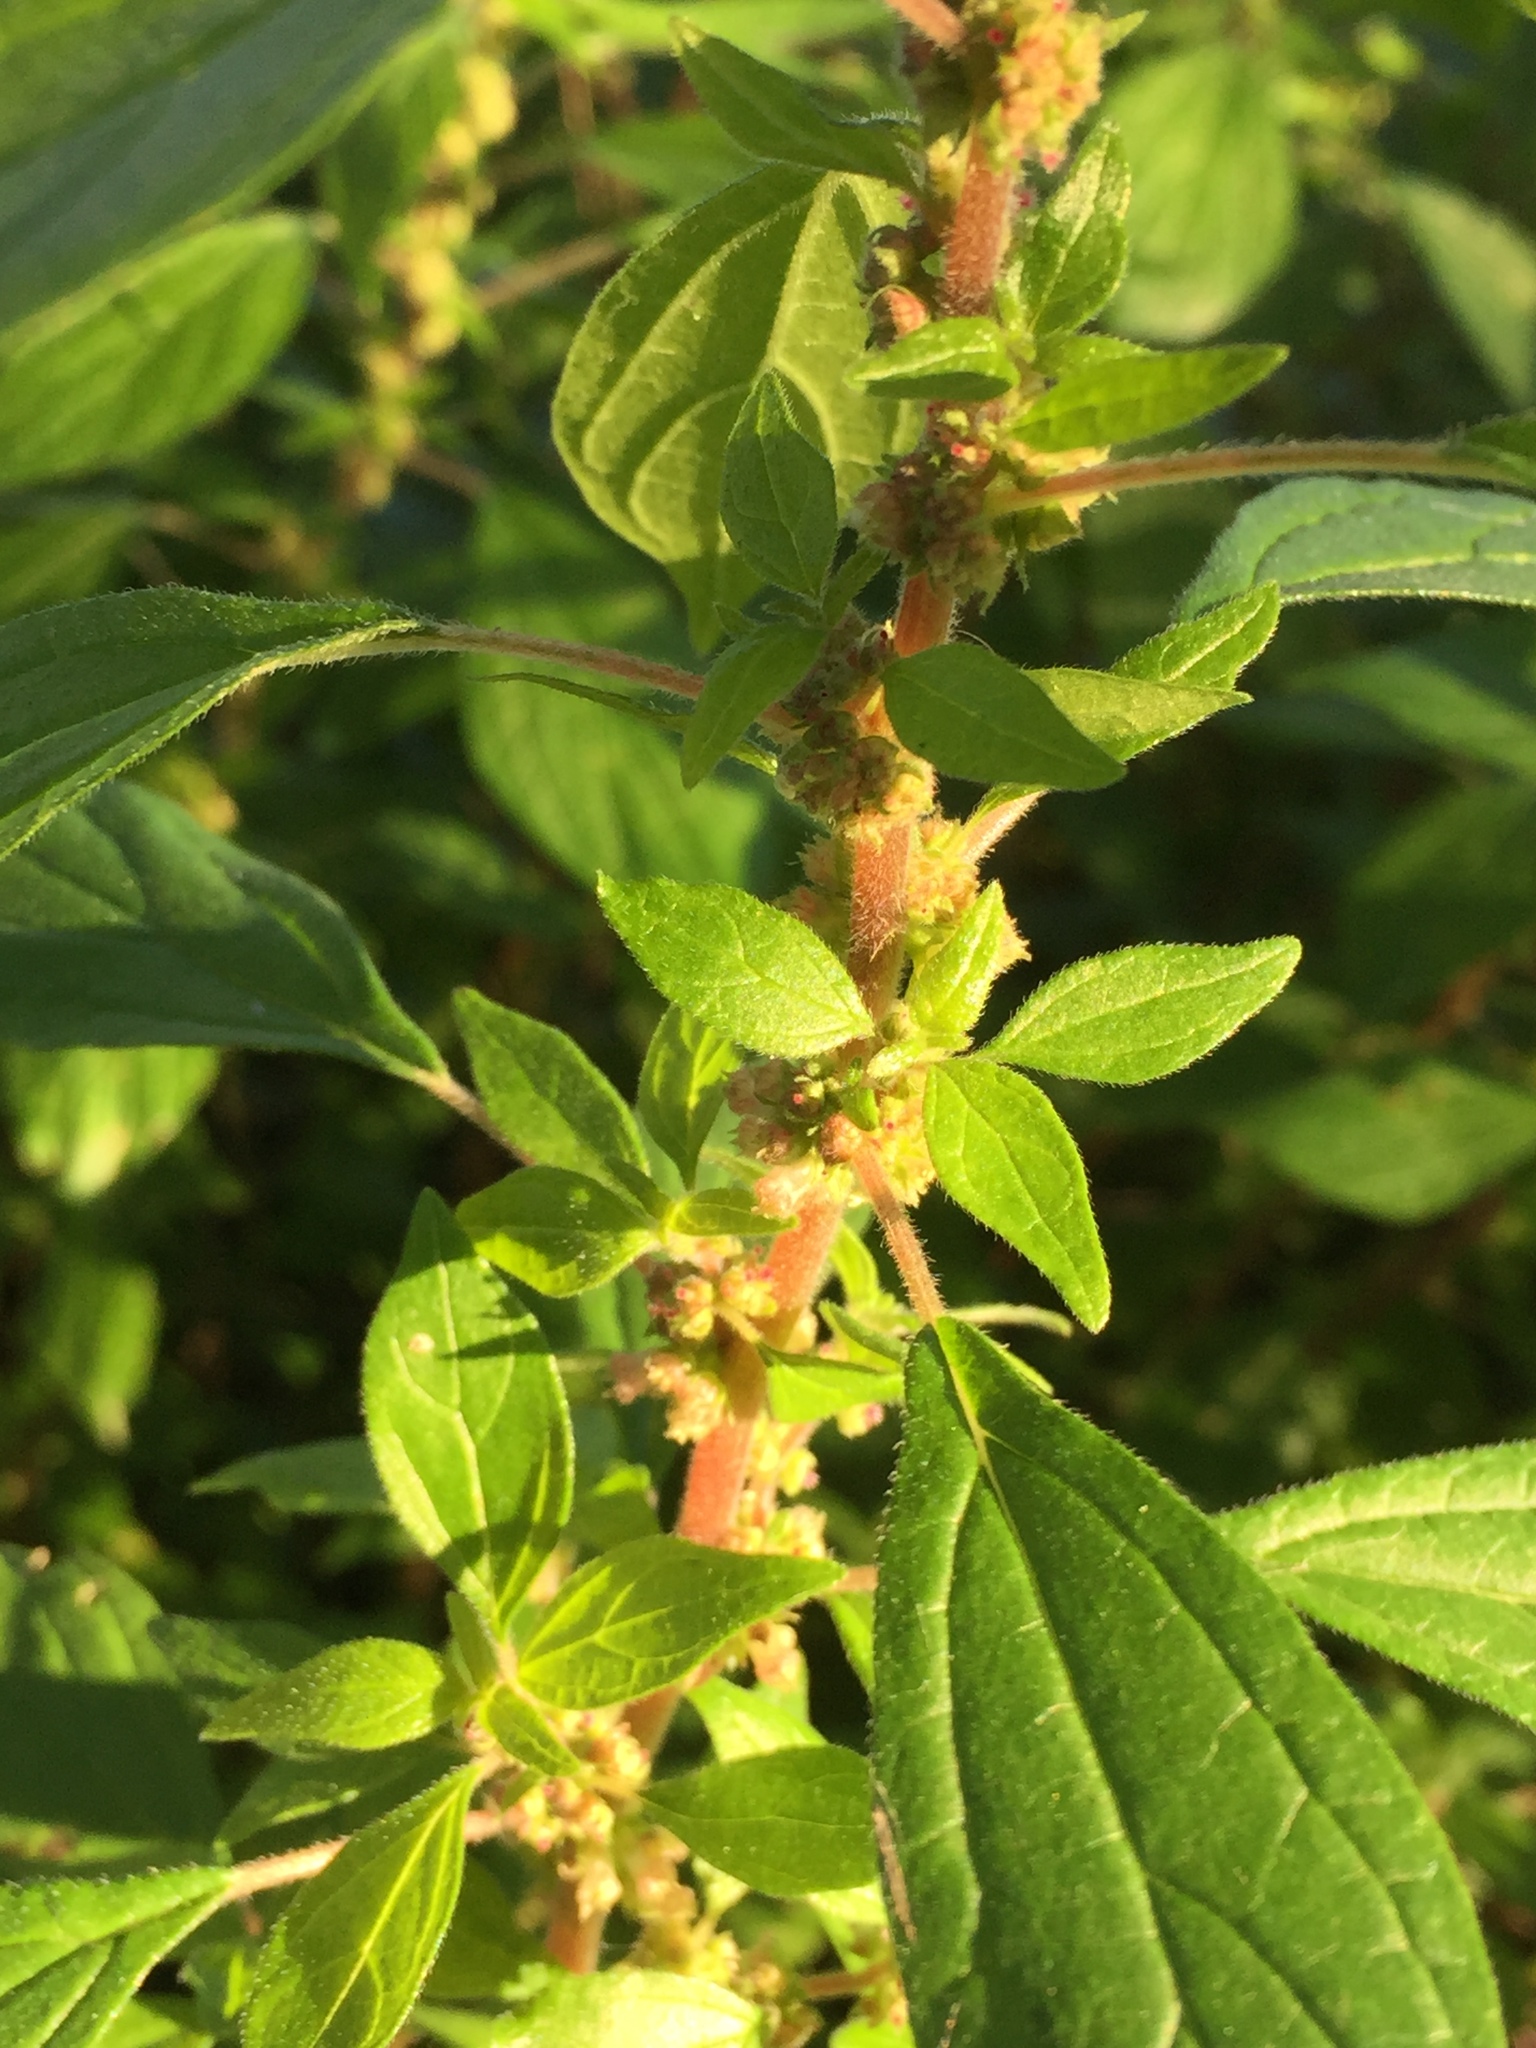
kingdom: Plantae
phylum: Tracheophyta
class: Magnoliopsida
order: Rosales
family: Urticaceae
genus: Parietaria
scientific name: Parietaria judaica
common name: Pellitory-of-the-wall
